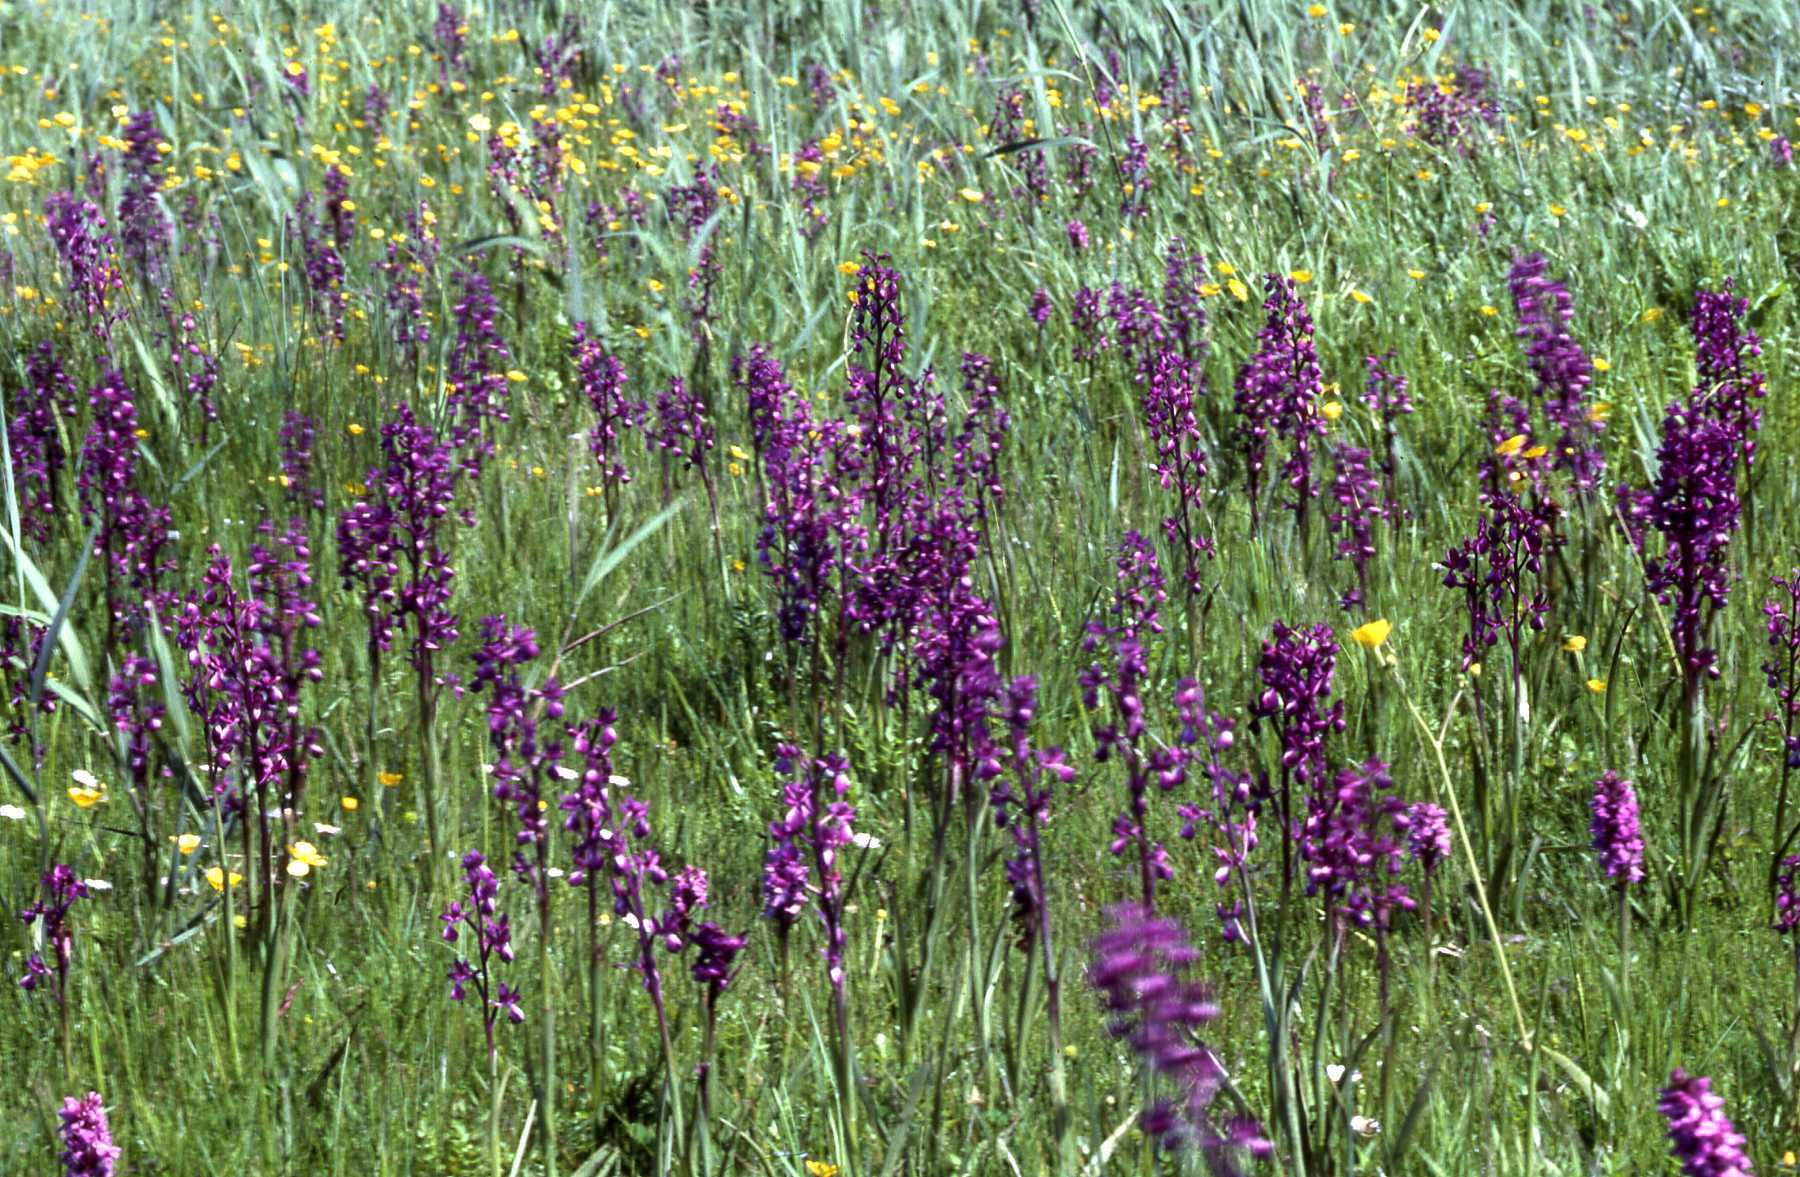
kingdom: Plantae
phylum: Tracheophyta
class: Liliopsida
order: Asparagales
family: Orchidaceae
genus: Anacamptis
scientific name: Anacamptis laxiflora
